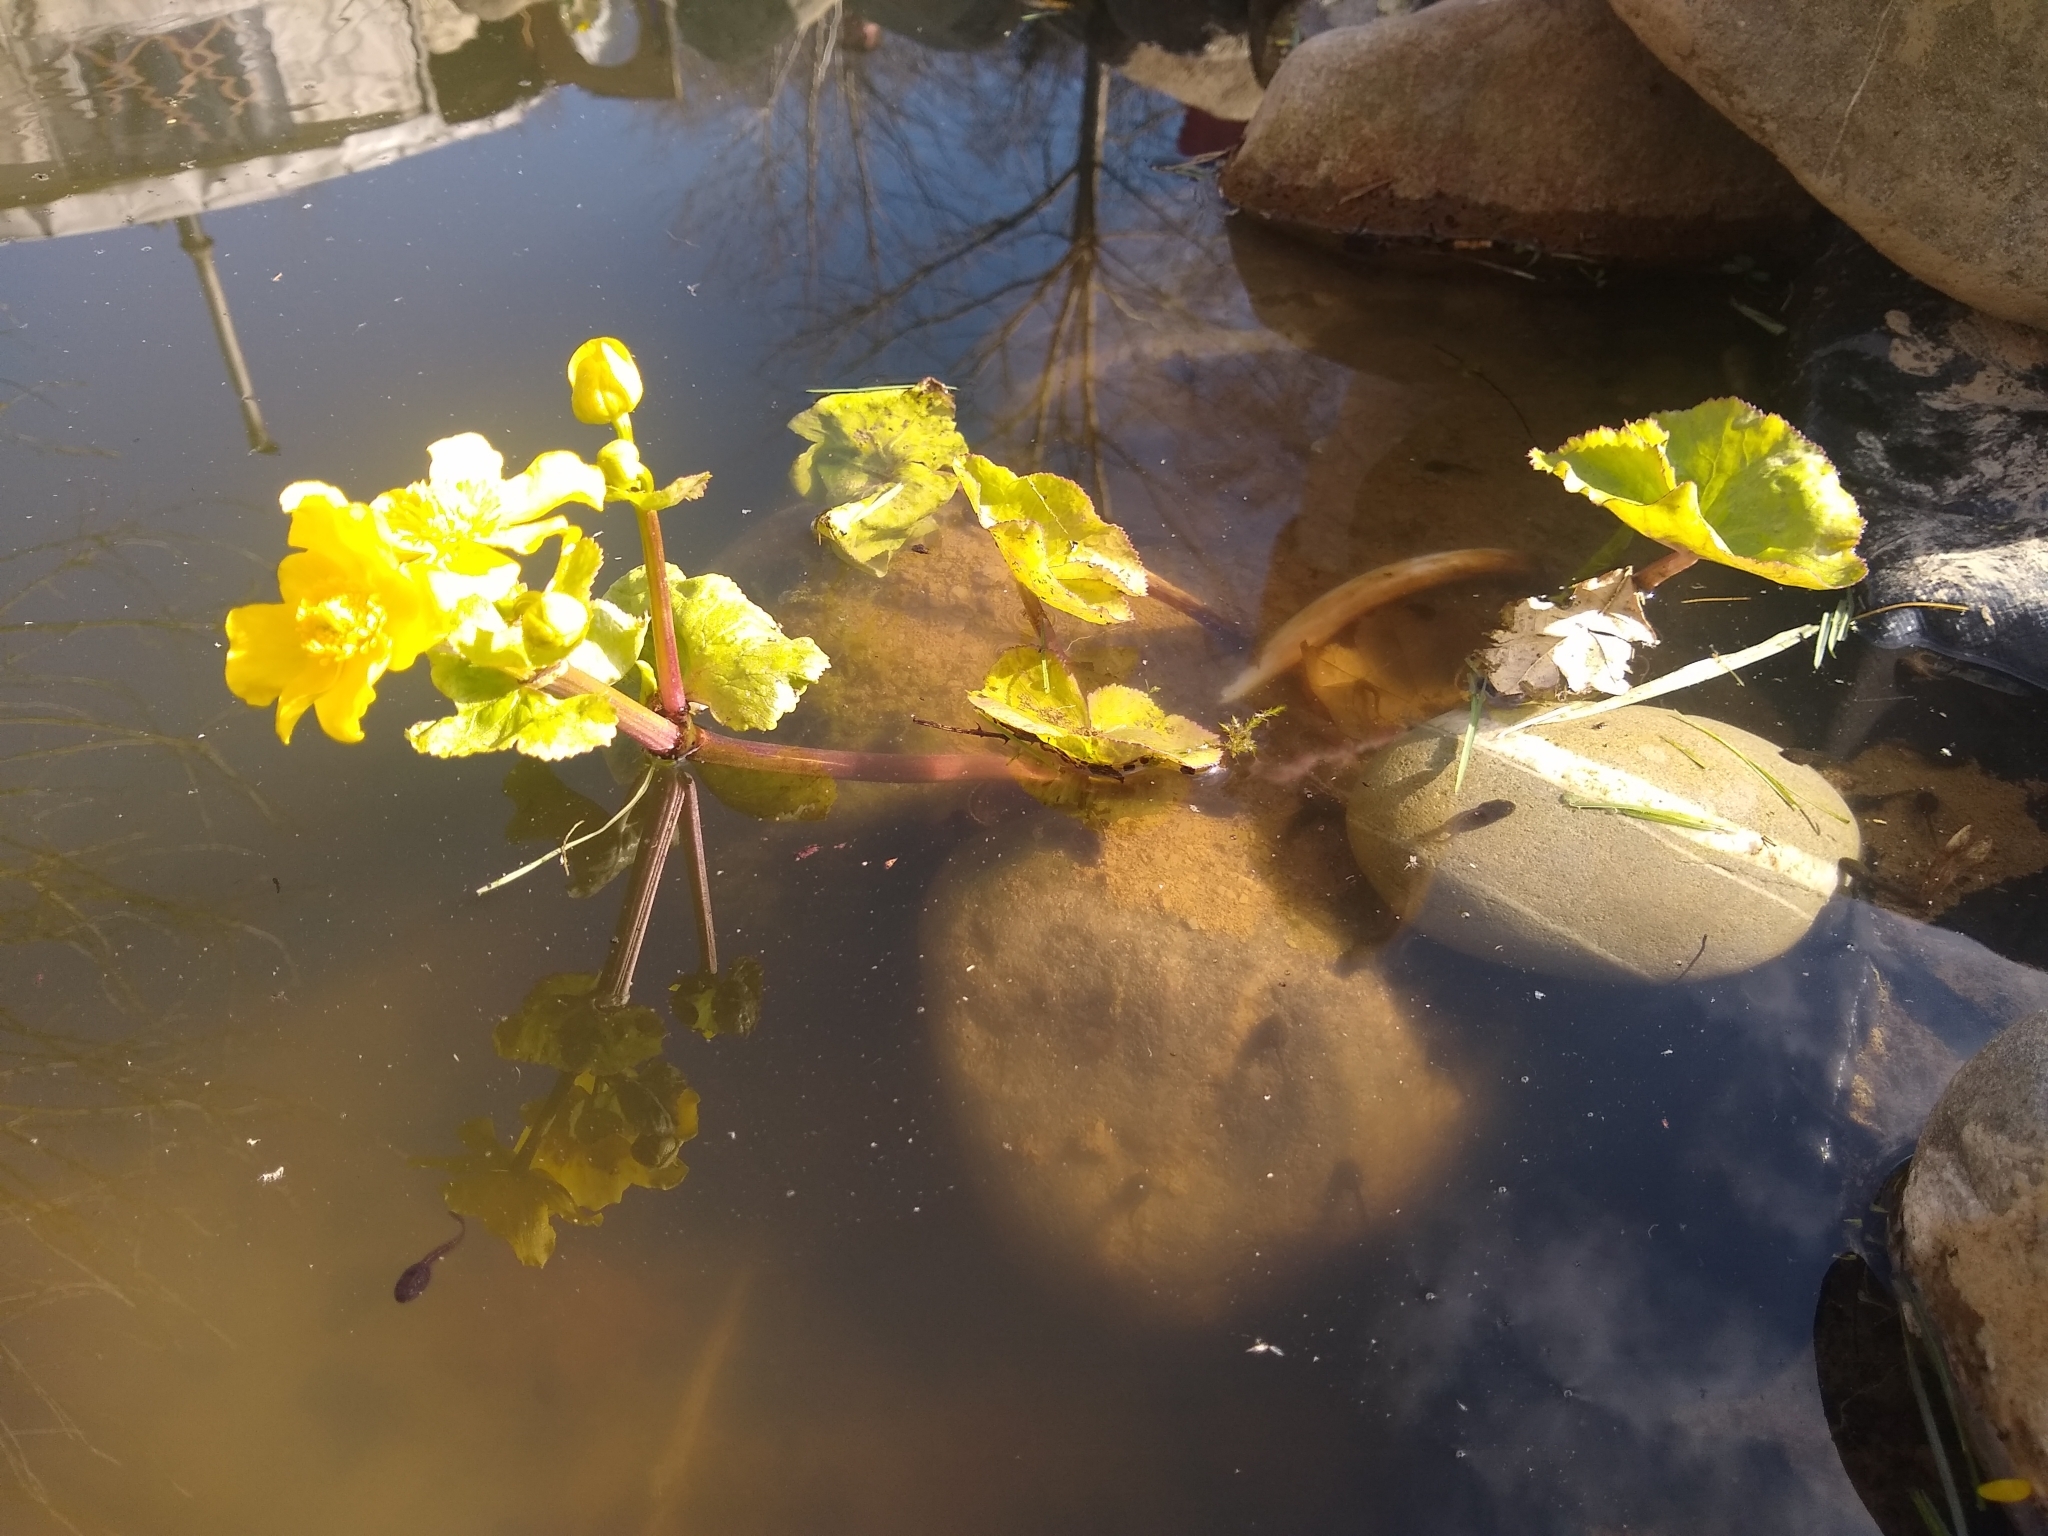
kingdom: Plantae
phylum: Tracheophyta
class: Magnoliopsida
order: Ranunculales
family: Ranunculaceae
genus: Caltha
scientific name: Caltha palustris
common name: Marsh marigold
